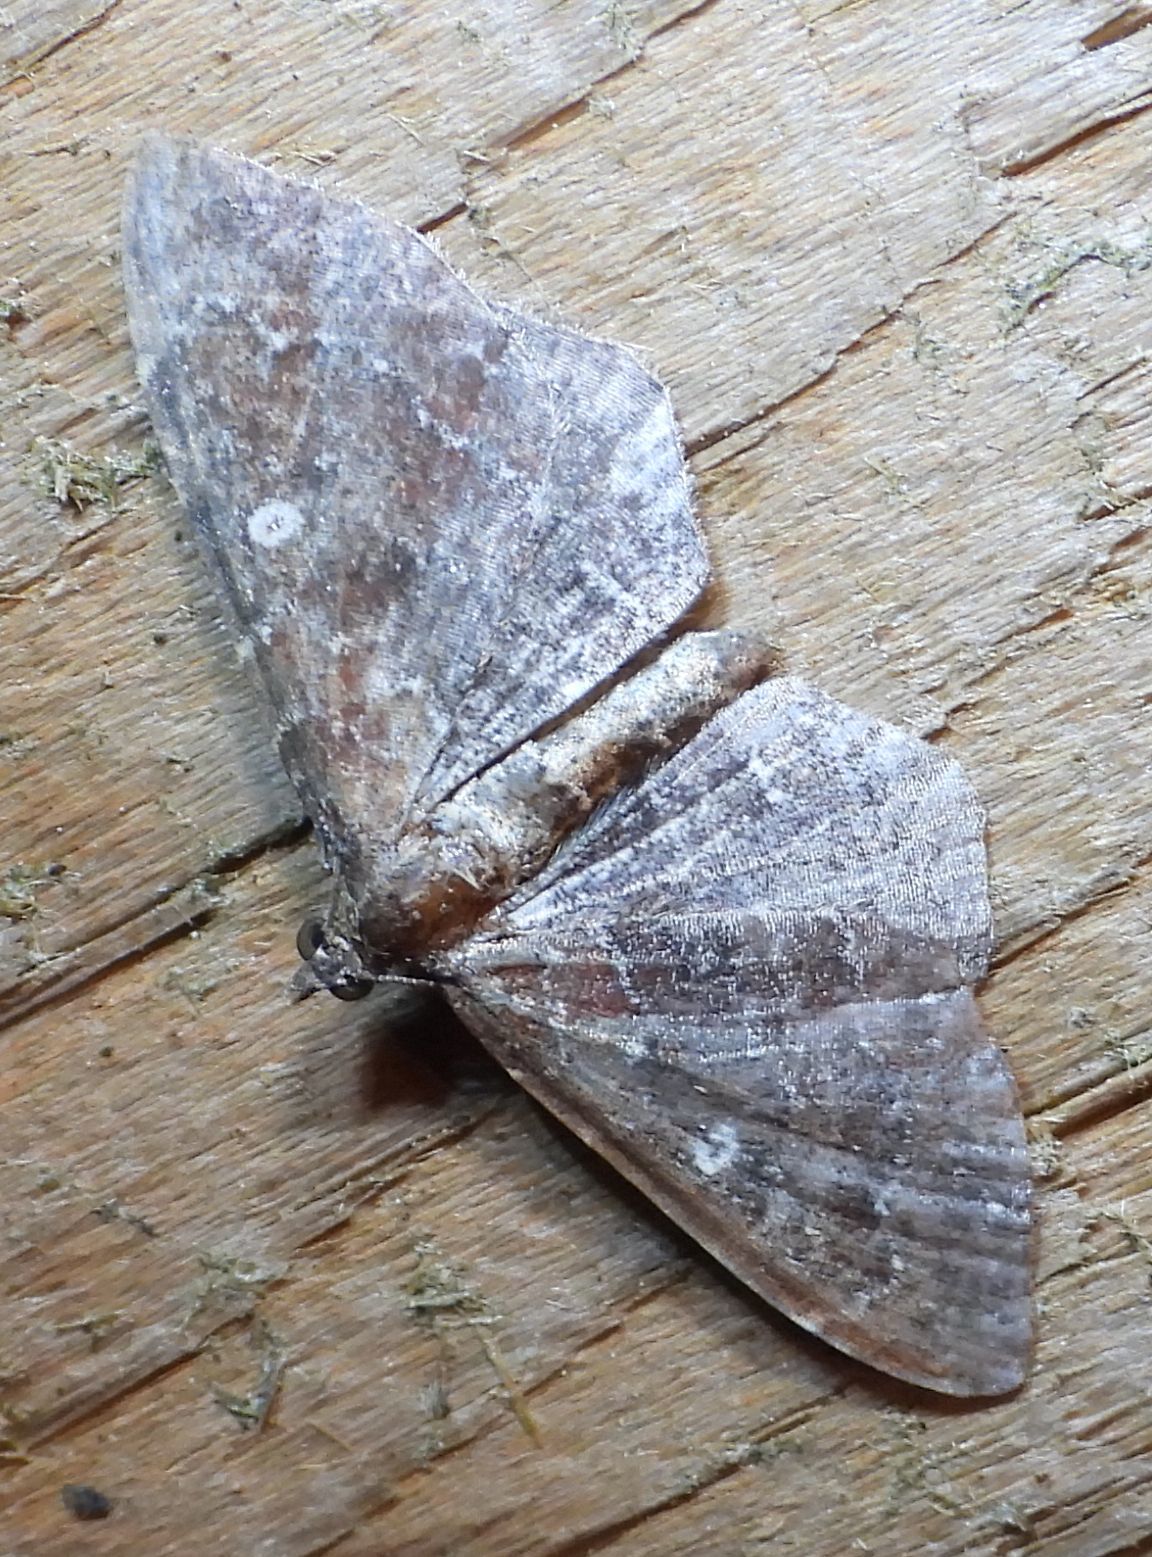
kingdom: Animalia
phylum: Arthropoda
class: Insecta
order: Lepidoptera
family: Geometridae
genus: Orthonama
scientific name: Orthonama obstipata
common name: The gem
